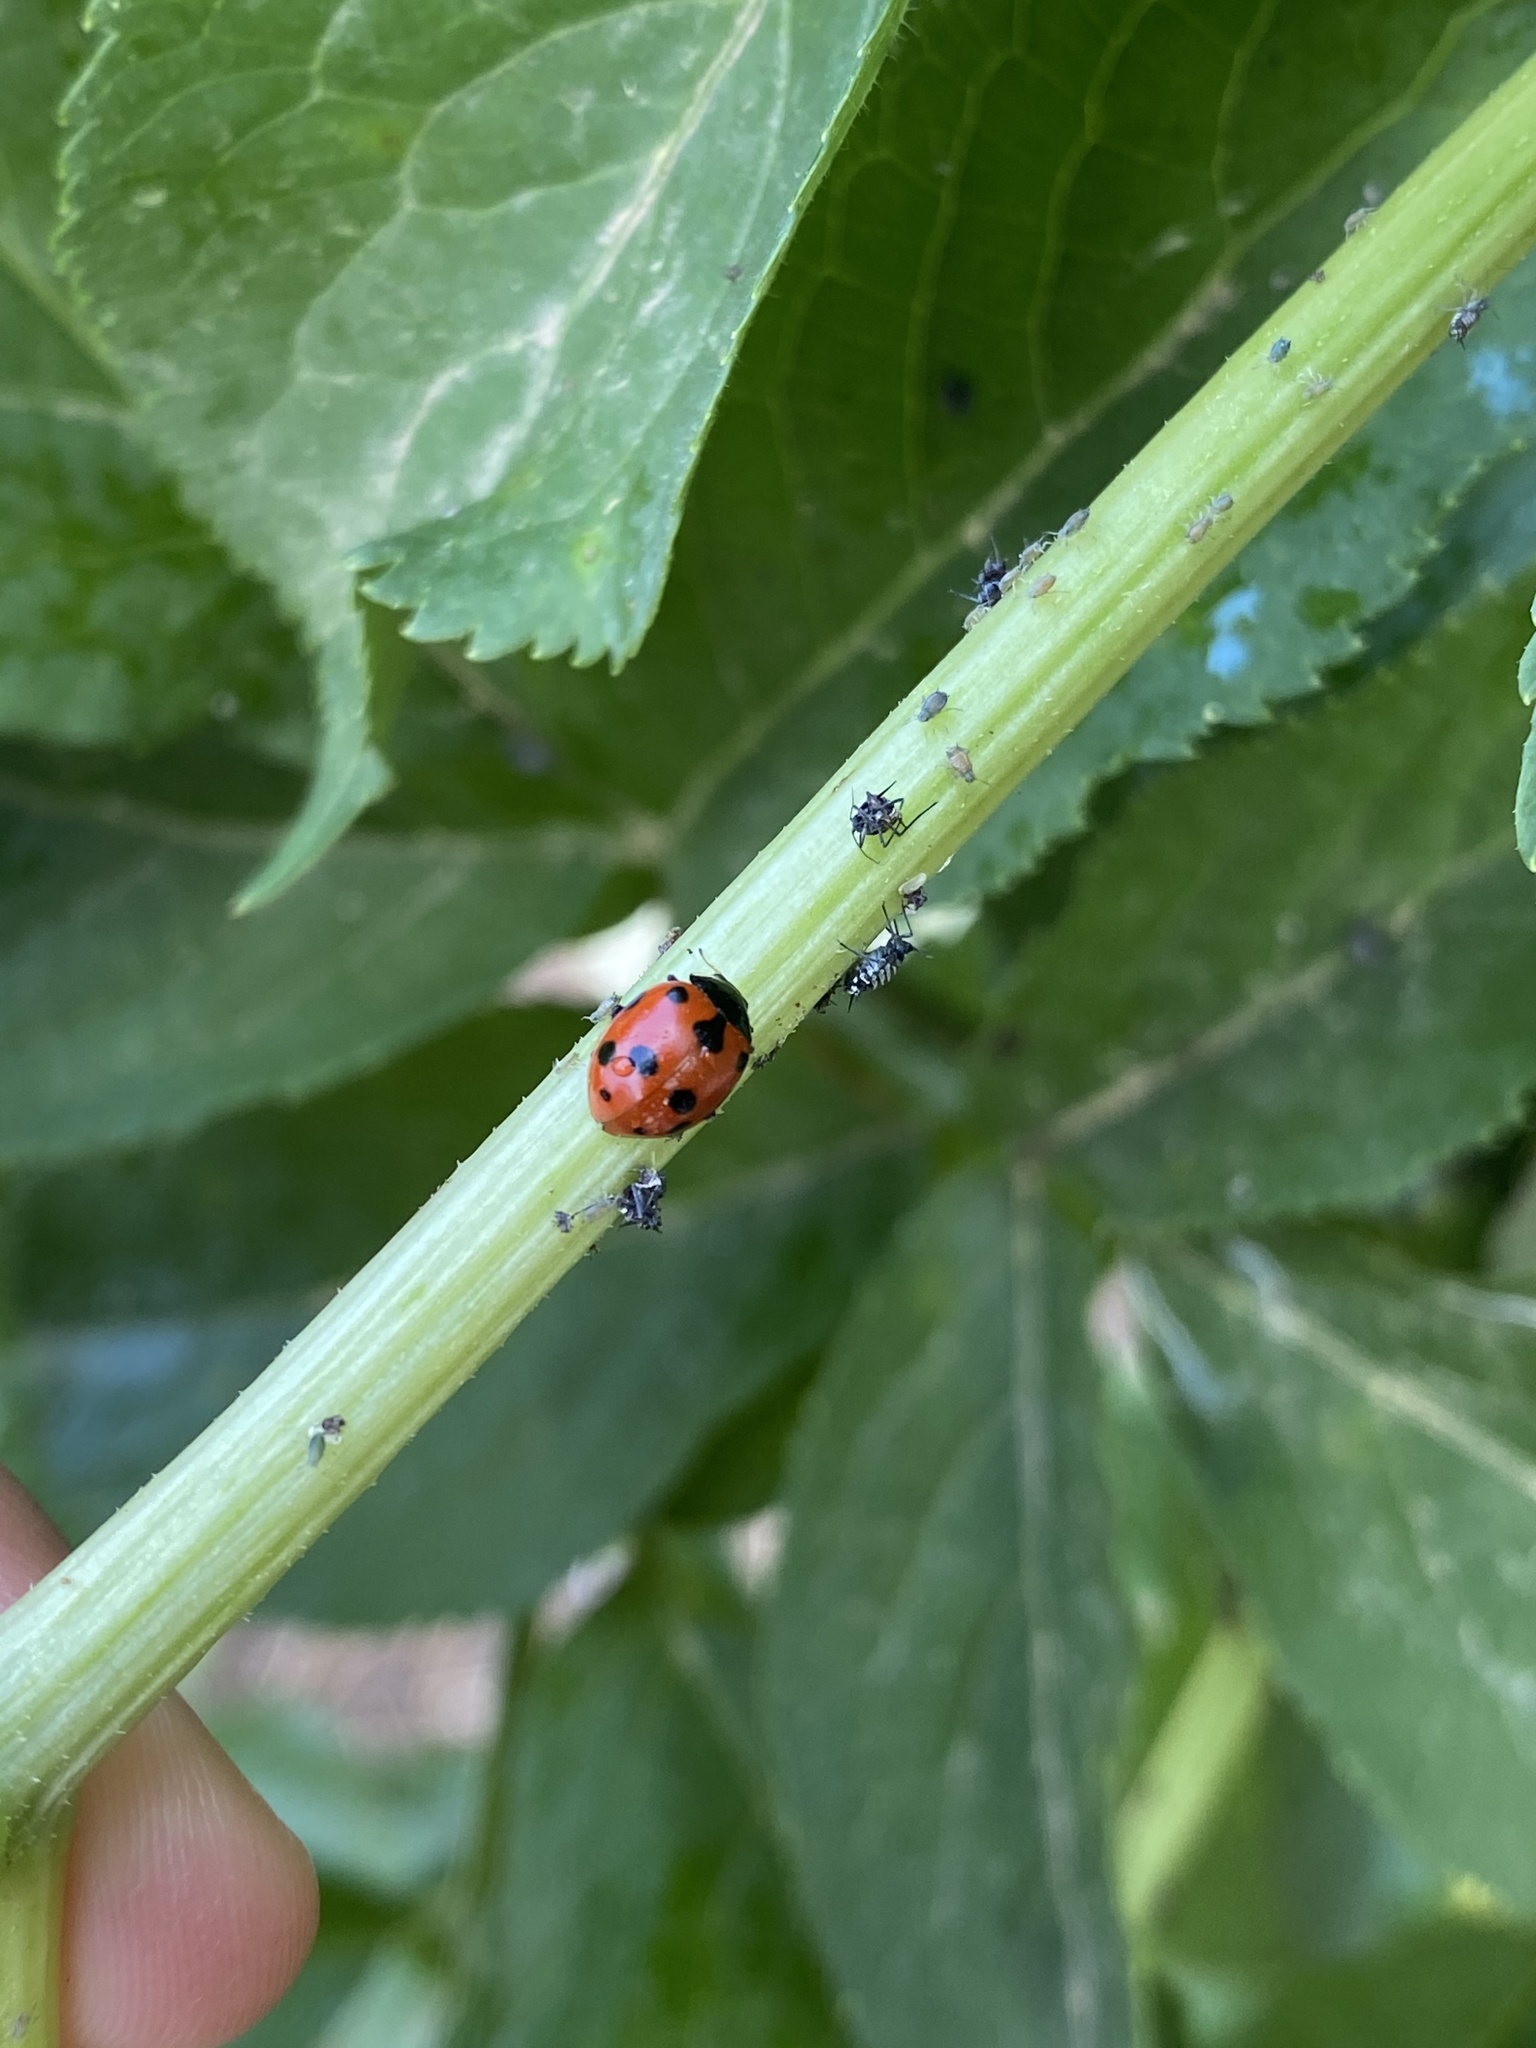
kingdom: Animalia
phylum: Arthropoda
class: Insecta
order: Coleoptera
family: Coccinellidae
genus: Ceratomegilla
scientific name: Ceratomegilla undecimnotata
